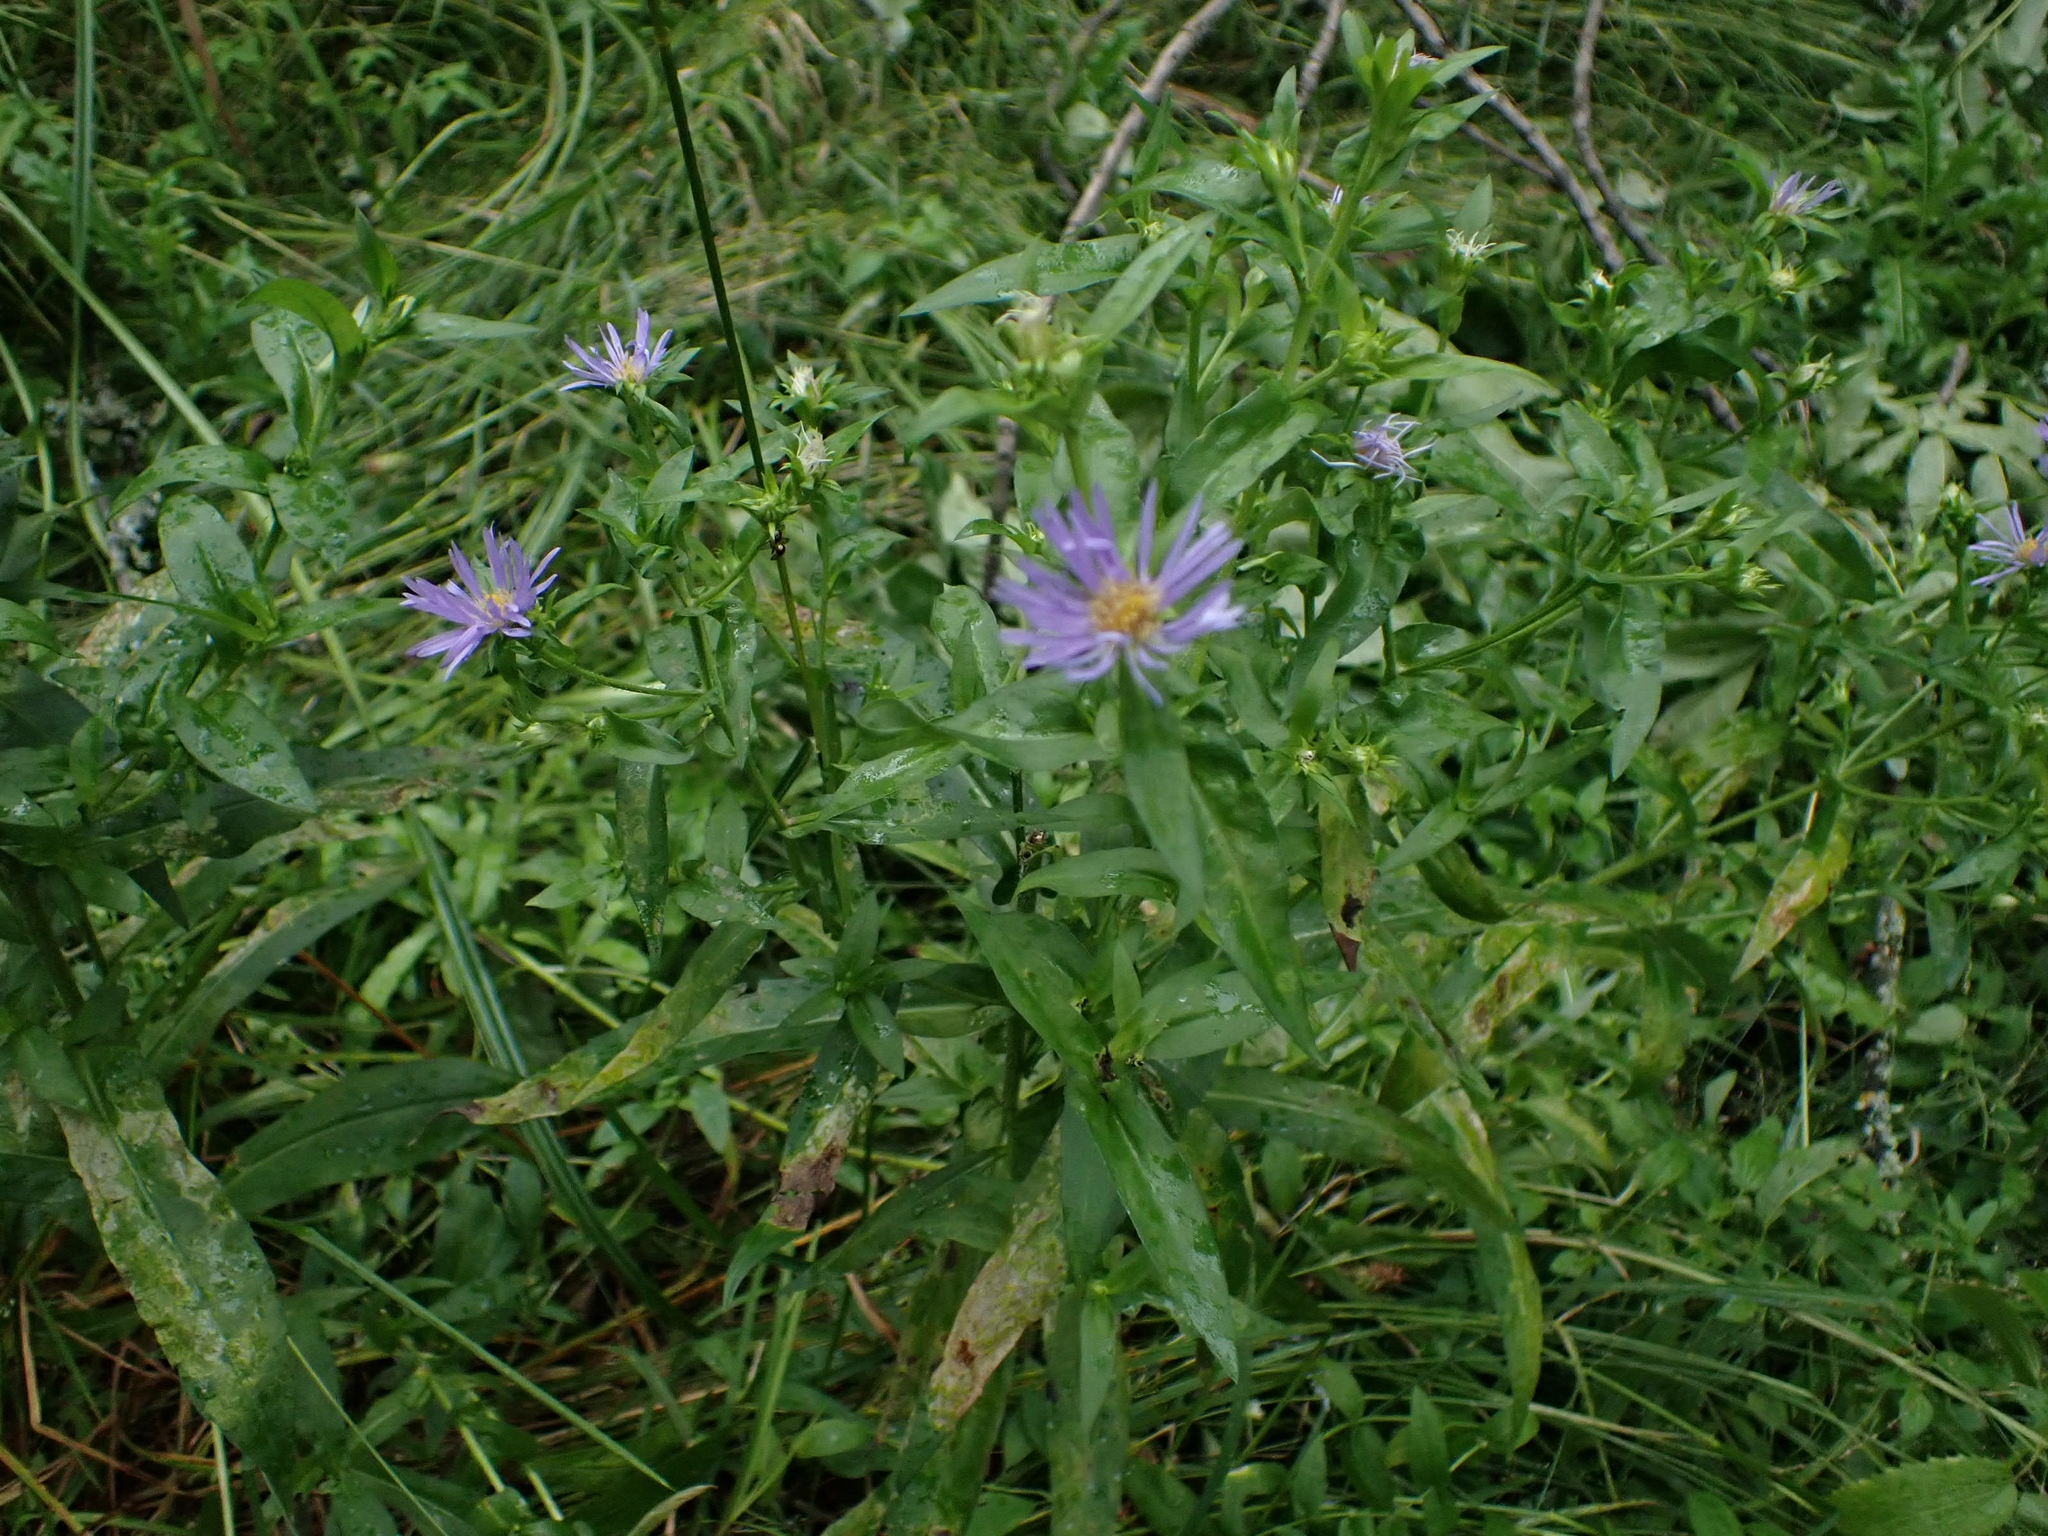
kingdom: Plantae
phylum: Tracheophyta
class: Magnoliopsida
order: Asterales
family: Asteraceae
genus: Symphyotrichum
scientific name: Symphyotrichum puniceum
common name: Bog aster
